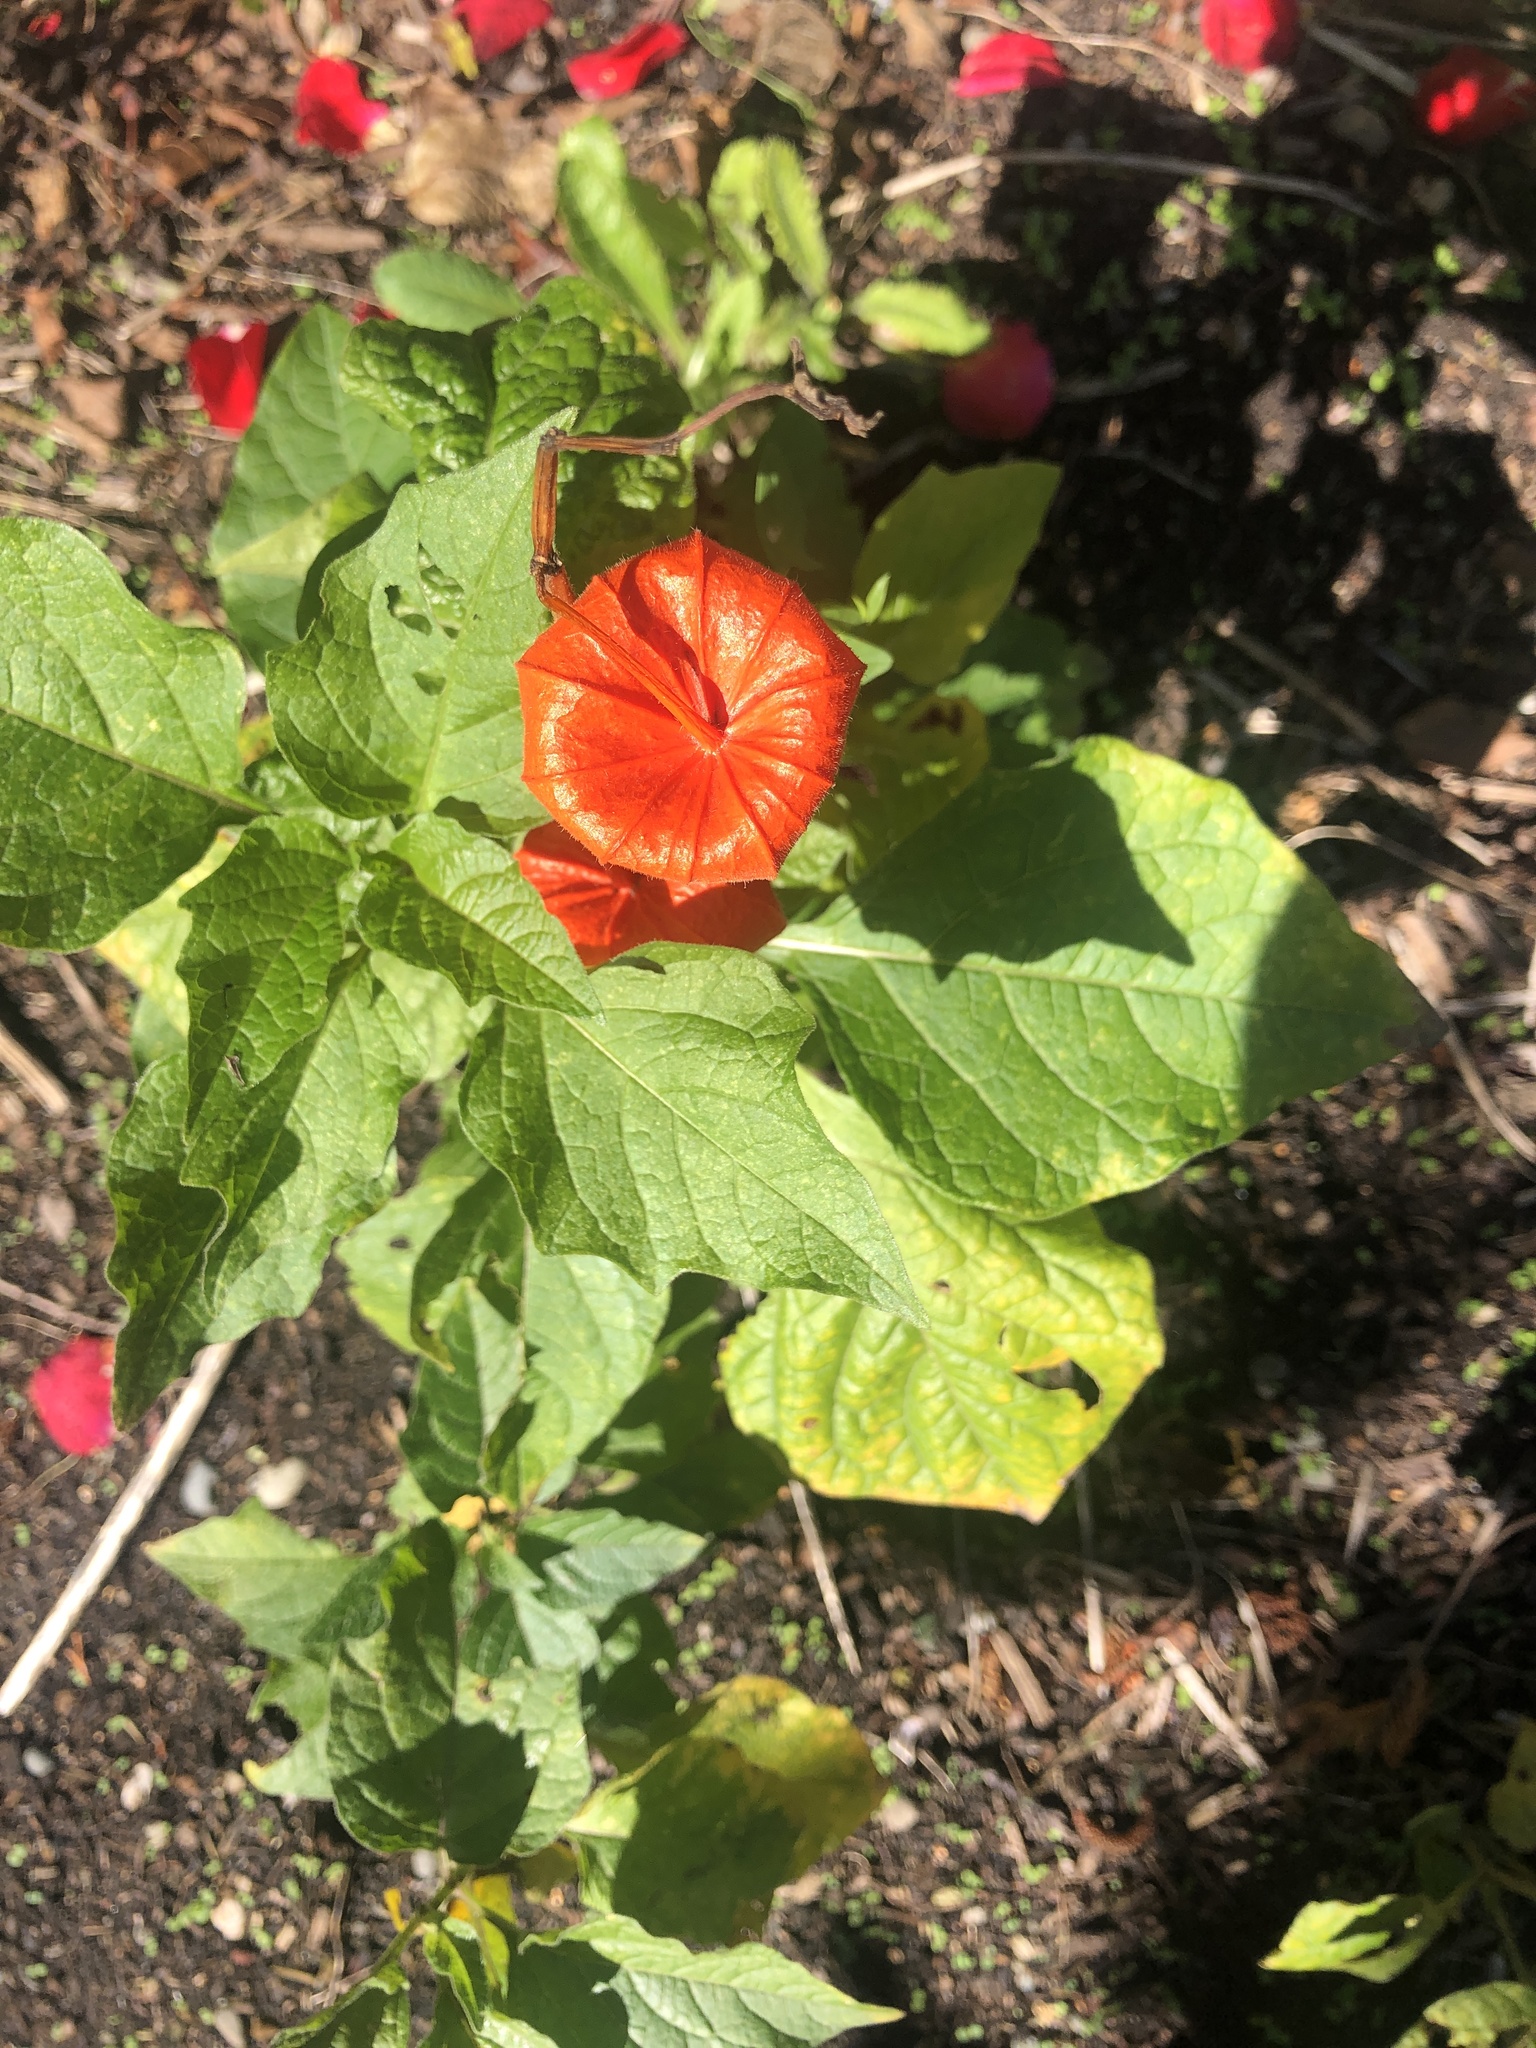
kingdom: Plantae
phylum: Tracheophyta
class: Magnoliopsida
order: Solanales
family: Solanaceae
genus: Alkekengi
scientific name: Alkekengi officinarum
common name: Japanese-lantern
